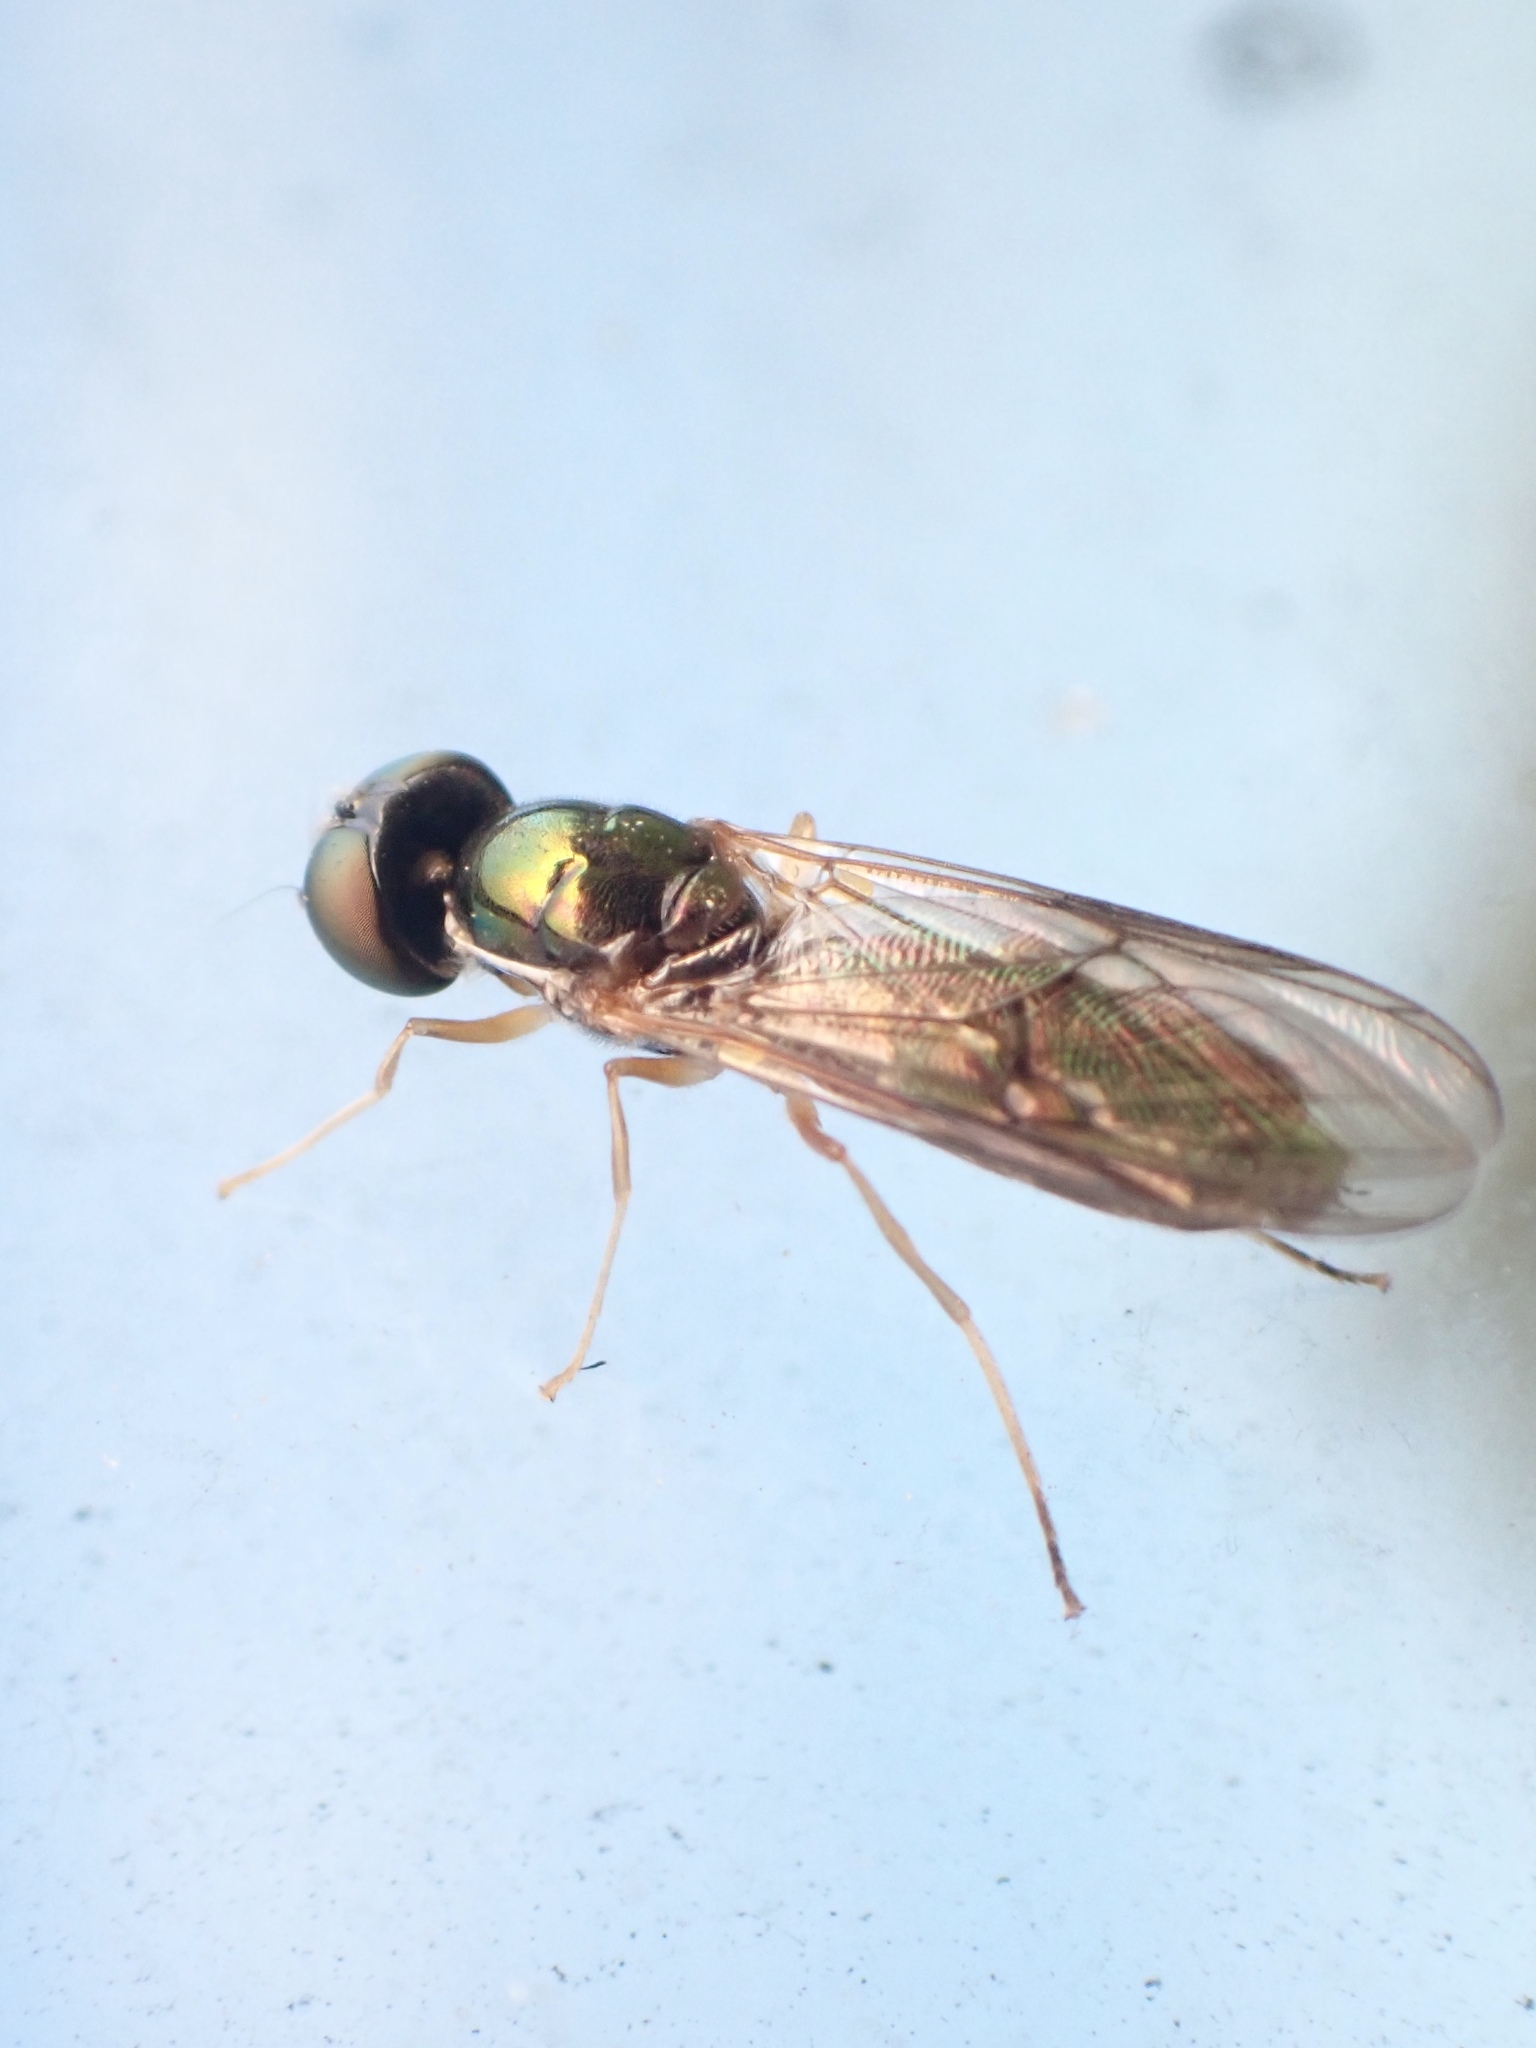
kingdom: Animalia
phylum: Arthropoda
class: Insecta
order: Diptera
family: Stratiomyidae
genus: Sargus
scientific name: Sargus fasciatus
